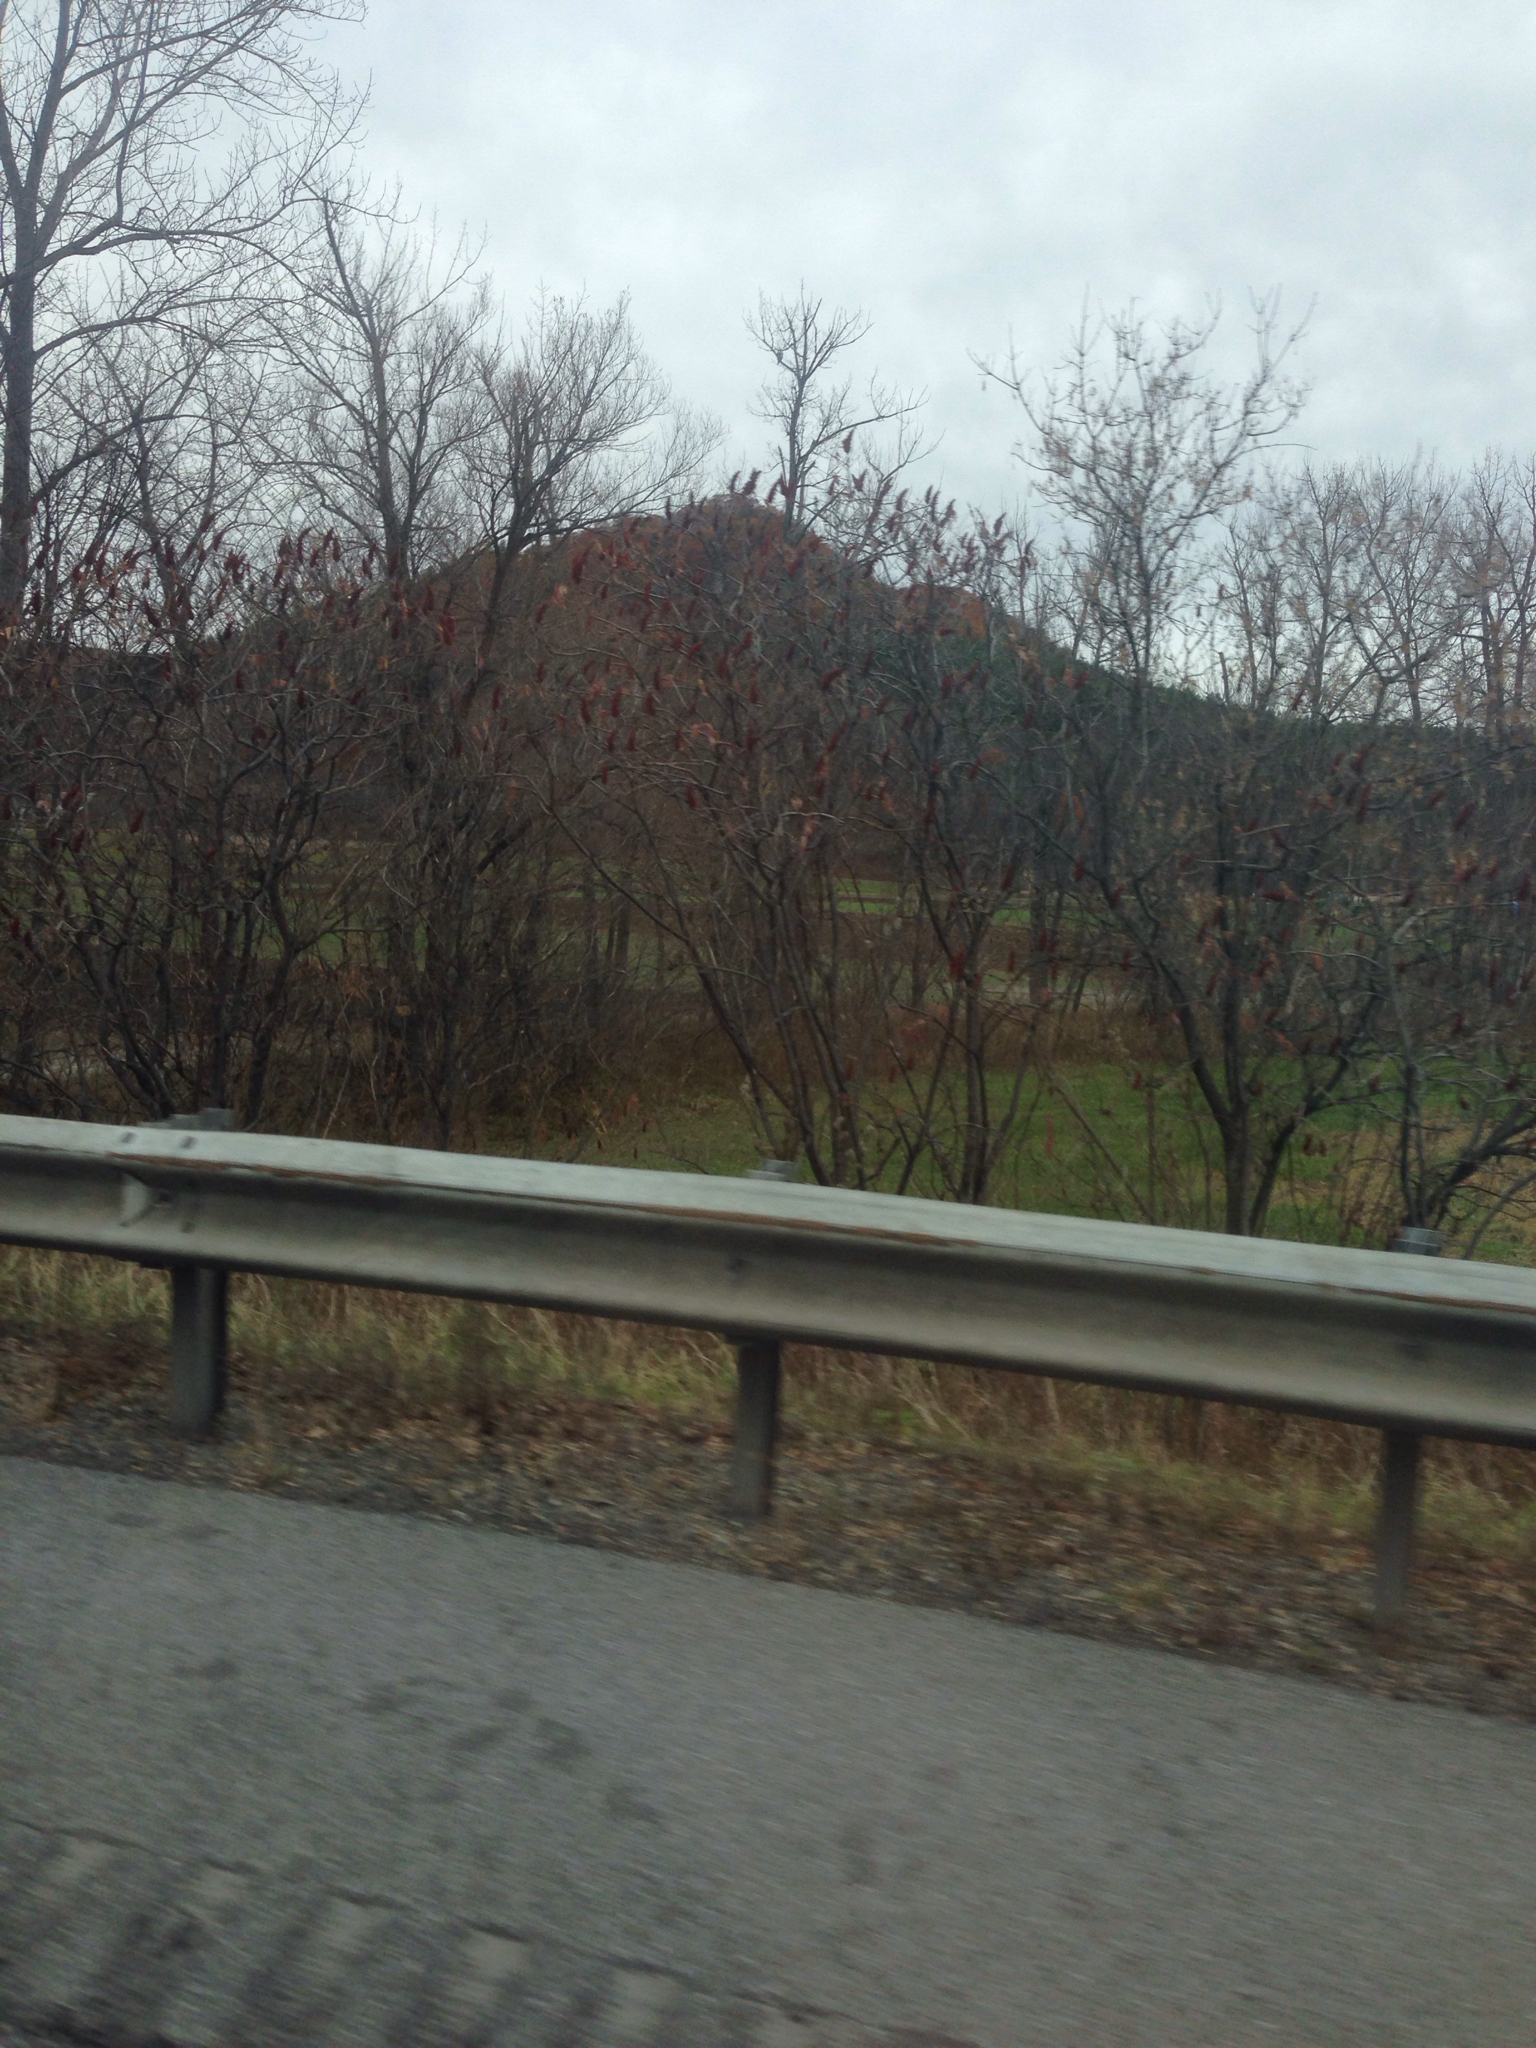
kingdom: Plantae
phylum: Tracheophyta
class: Magnoliopsida
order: Sapindales
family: Anacardiaceae
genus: Rhus
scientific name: Rhus typhina
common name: Staghorn sumac
